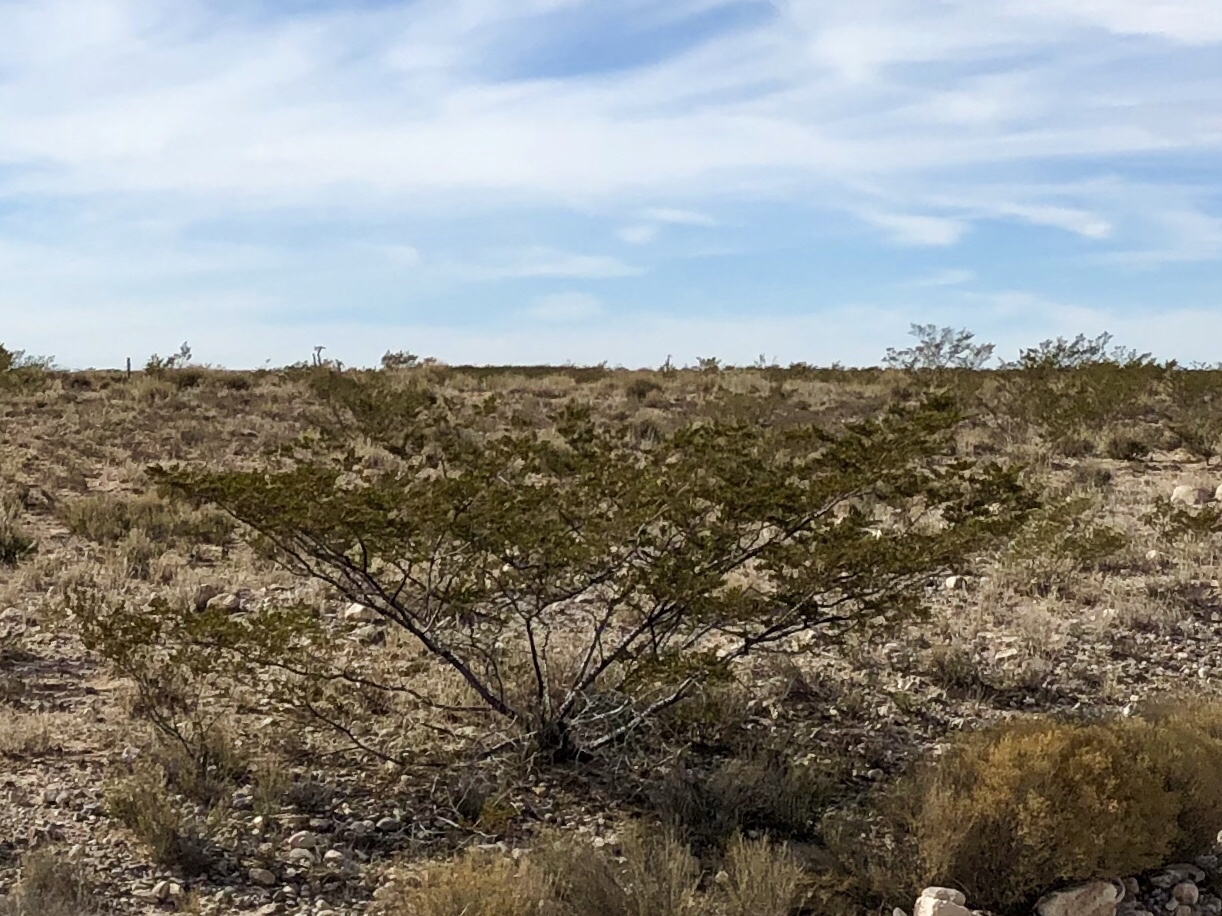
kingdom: Plantae
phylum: Tracheophyta
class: Magnoliopsida
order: Zygophyllales
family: Zygophyllaceae
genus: Larrea
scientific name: Larrea tridentata
